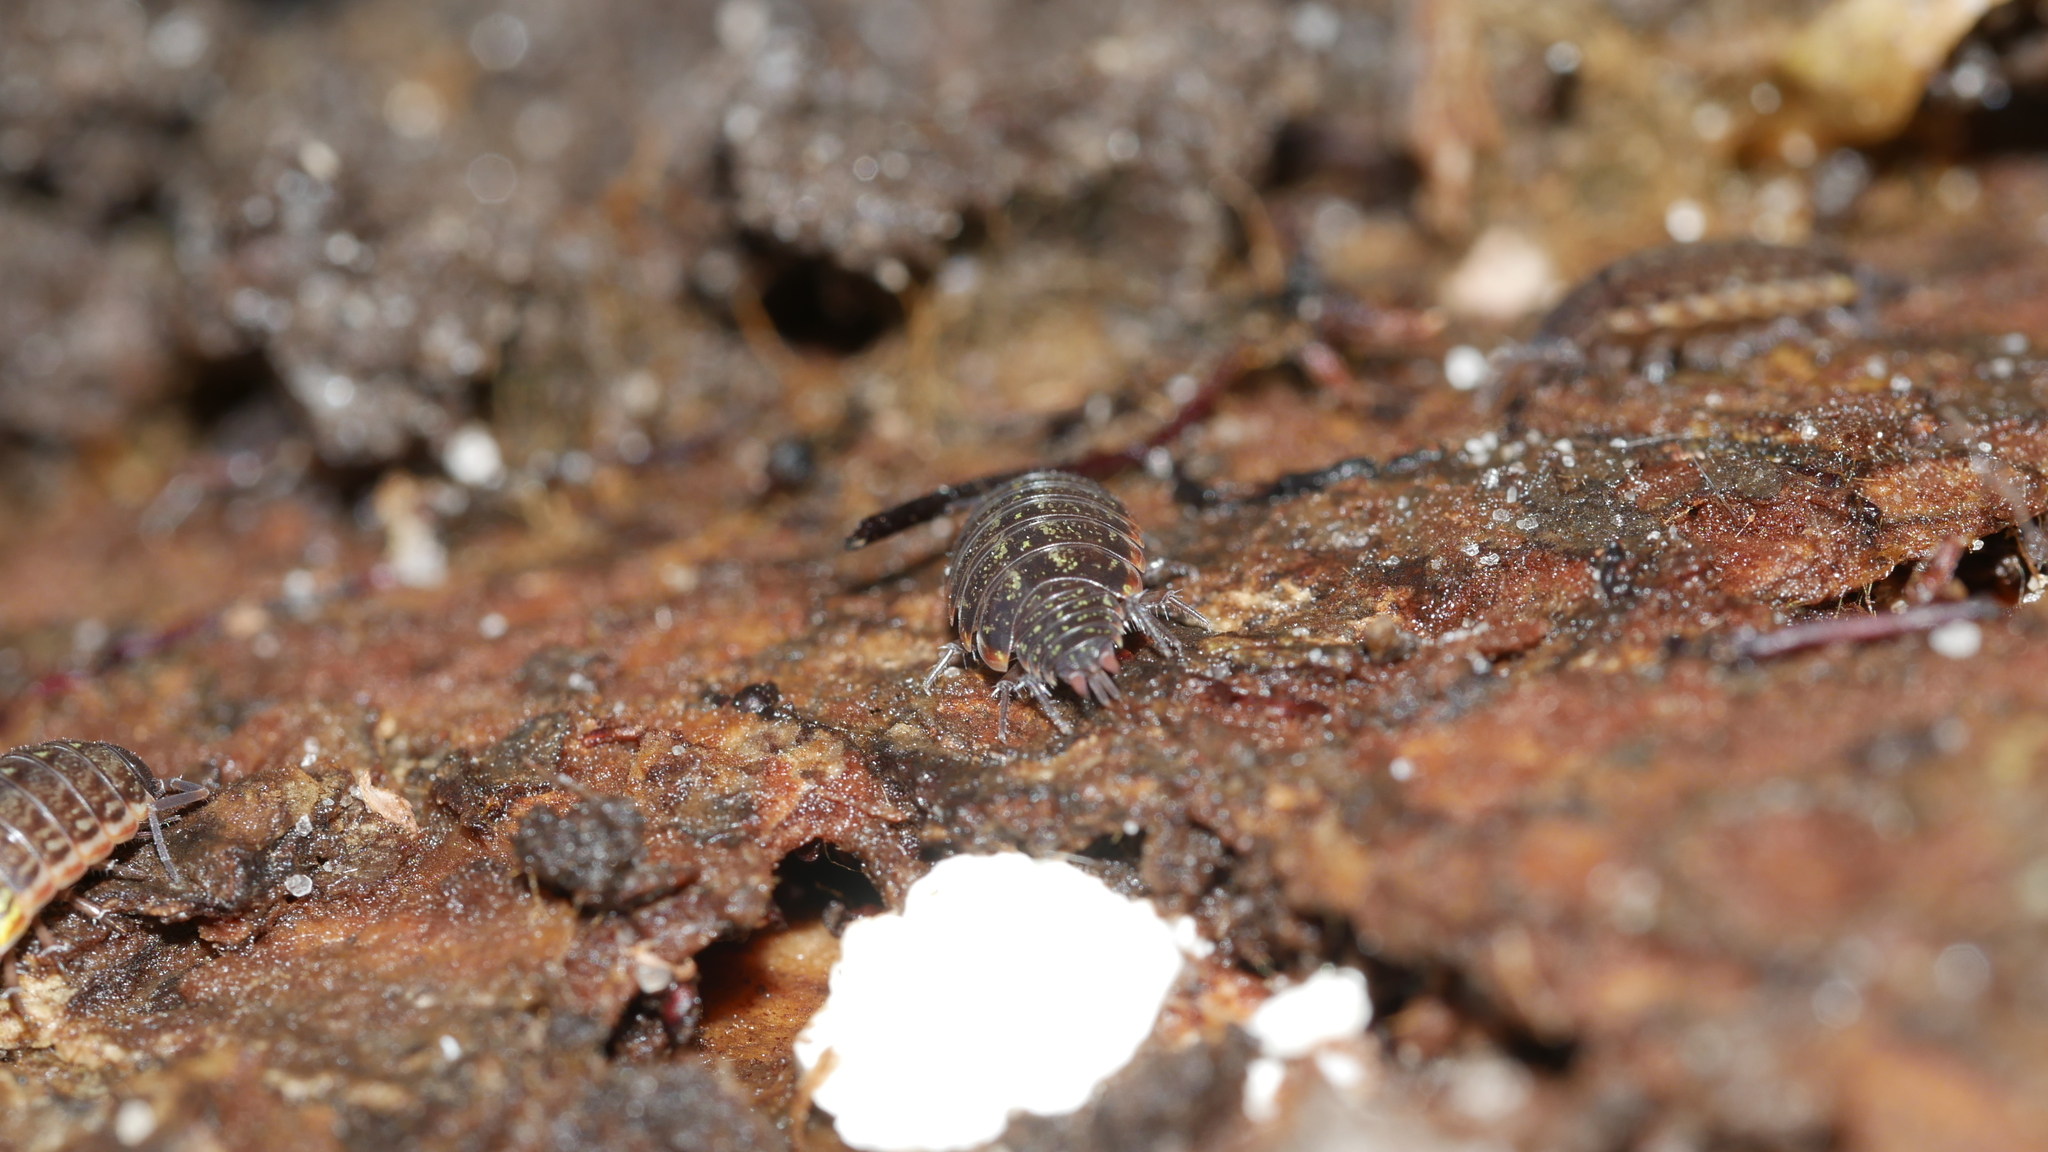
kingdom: Animalia
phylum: Arthropoda
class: Malacostraca
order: Isopoda
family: Philosciidae
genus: Philoscia
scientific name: Philoscia muscorum
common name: Common striped woodlouse
